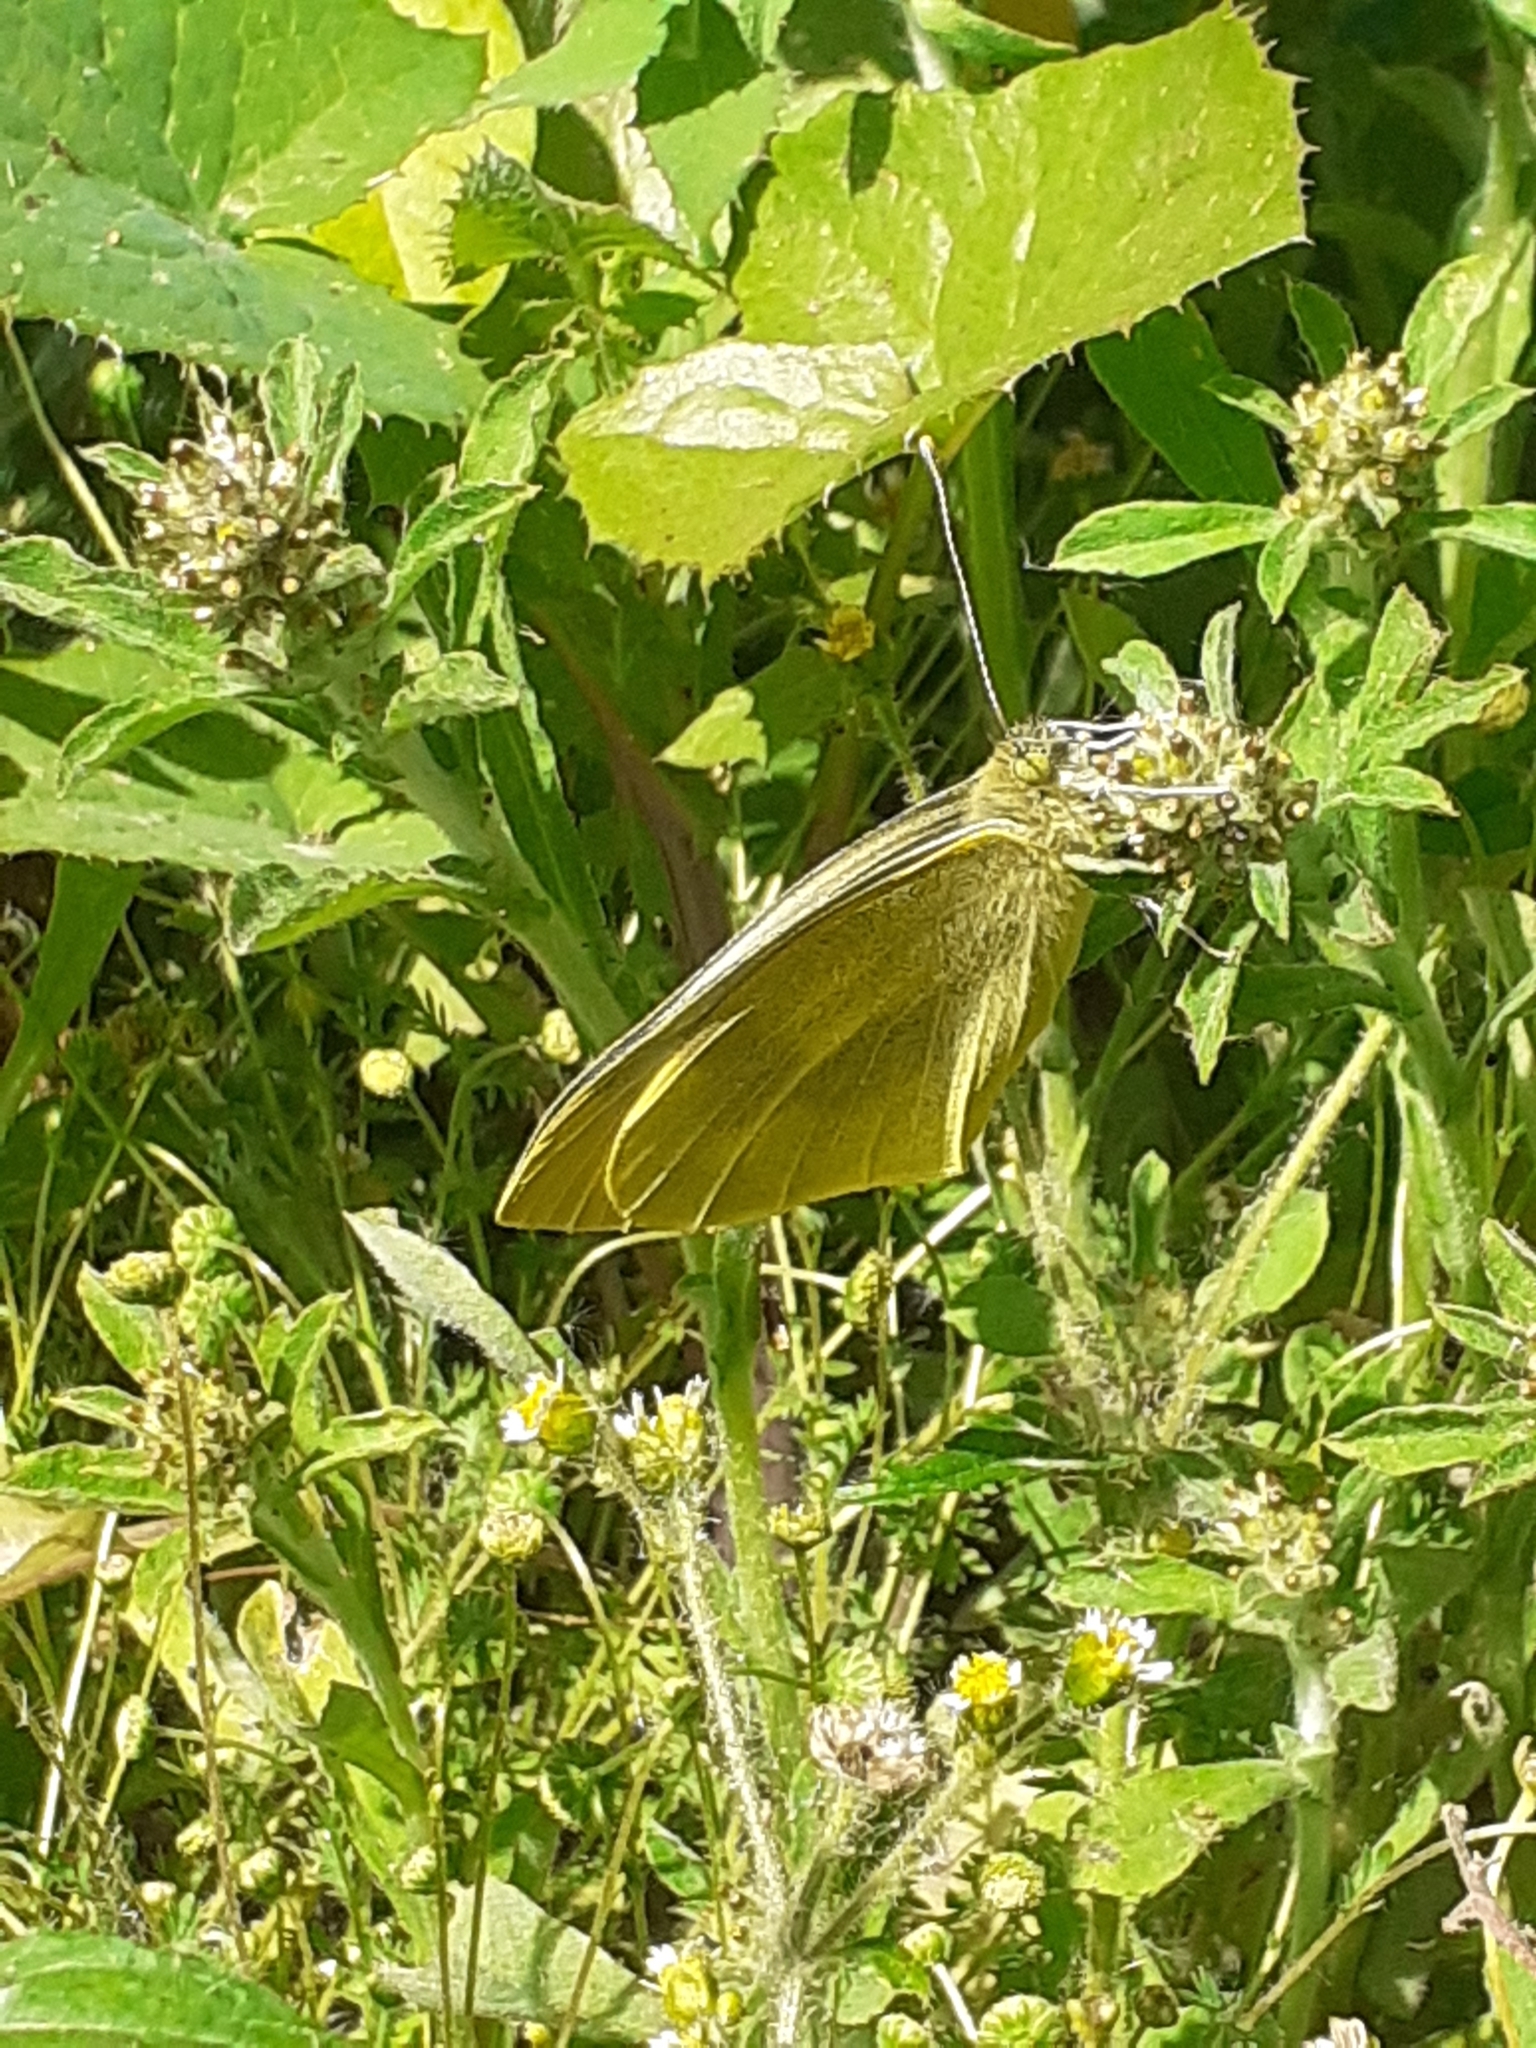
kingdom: Animalia
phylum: Arthropoda
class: Insecta
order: Lepidoptera
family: Pieridae
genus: Pieris
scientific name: Pieris cheiranthi
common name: Canary islands large white
